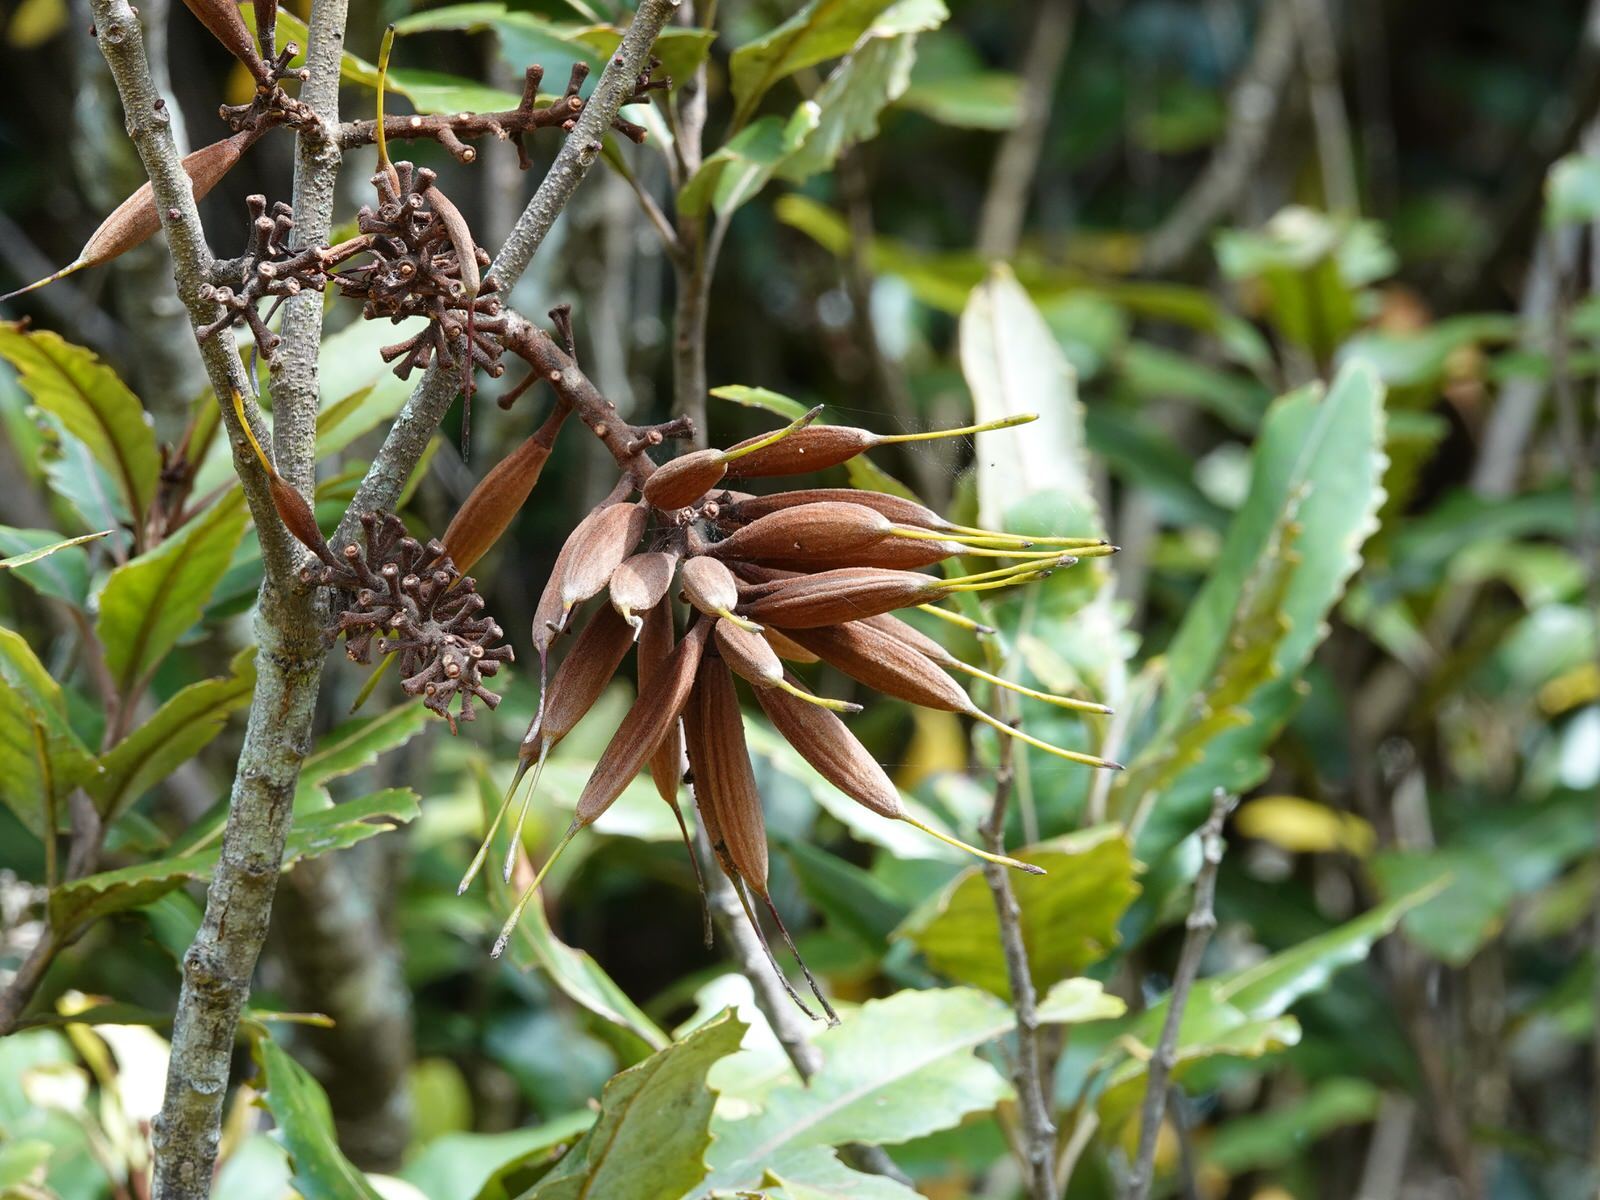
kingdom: Plantae
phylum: Tracheophyta
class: Magnoliopsida
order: Proteales
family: Proteaceae
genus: Knightia
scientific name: Knightia excelsa
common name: New zealand-honeysuckle
